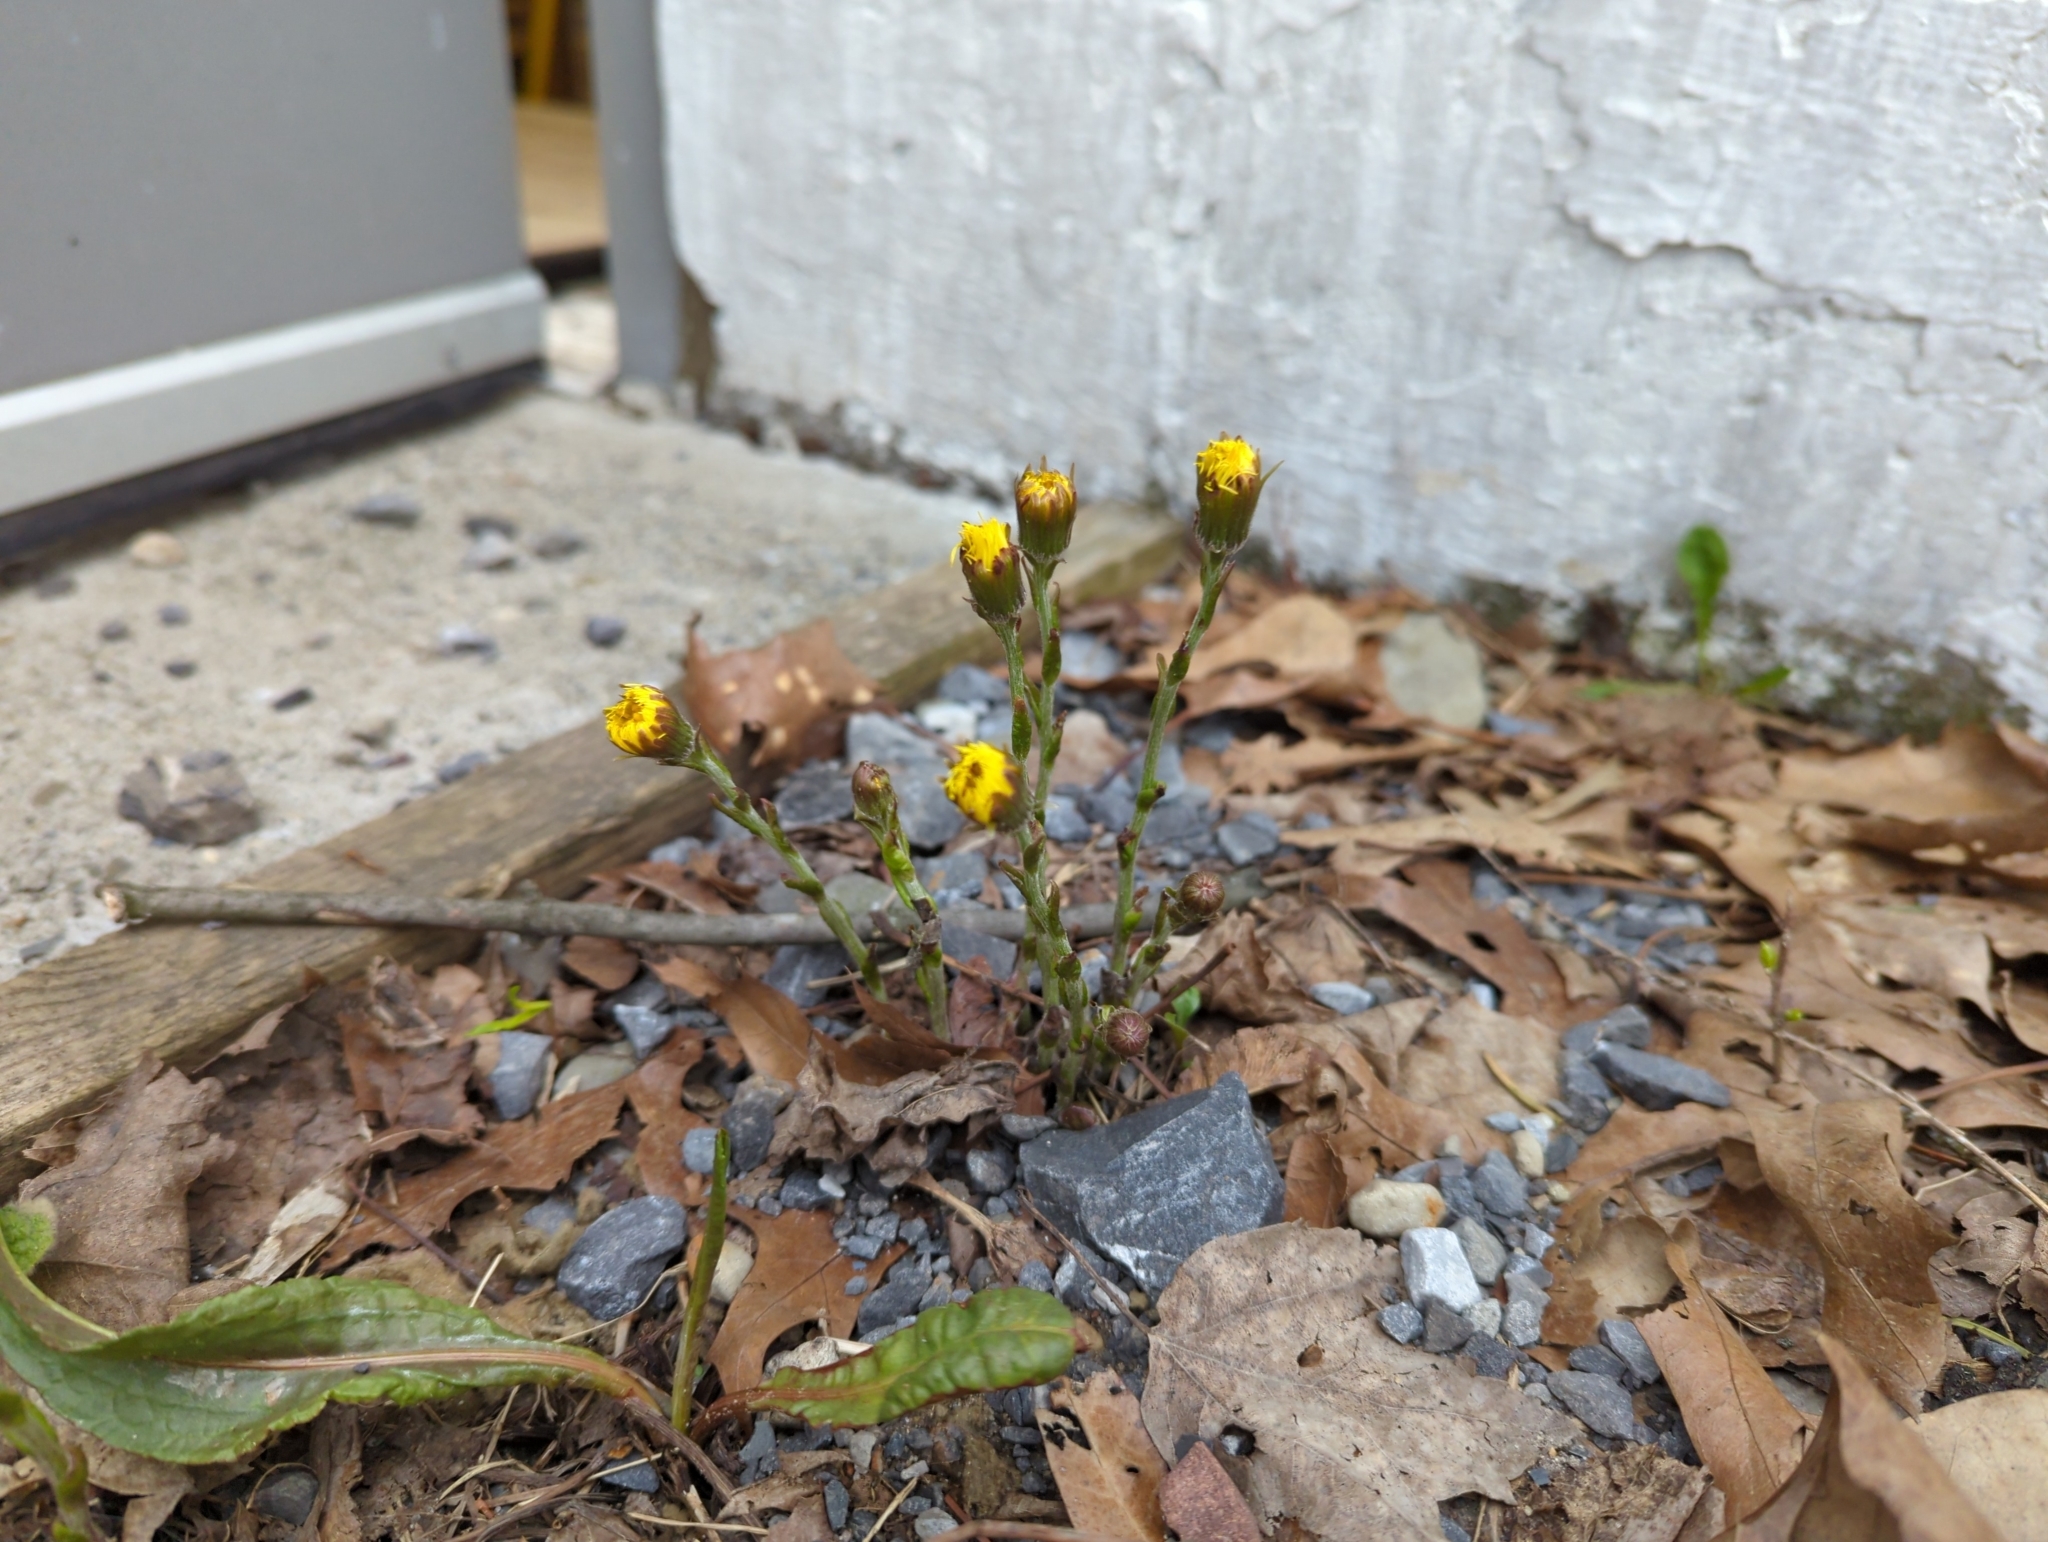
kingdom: Plantae
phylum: Tracheophyta
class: Magnoliopsida
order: Asterales
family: Asteraceae
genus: Tussilago
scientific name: Tussilago farfara
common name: Coltsfoot
